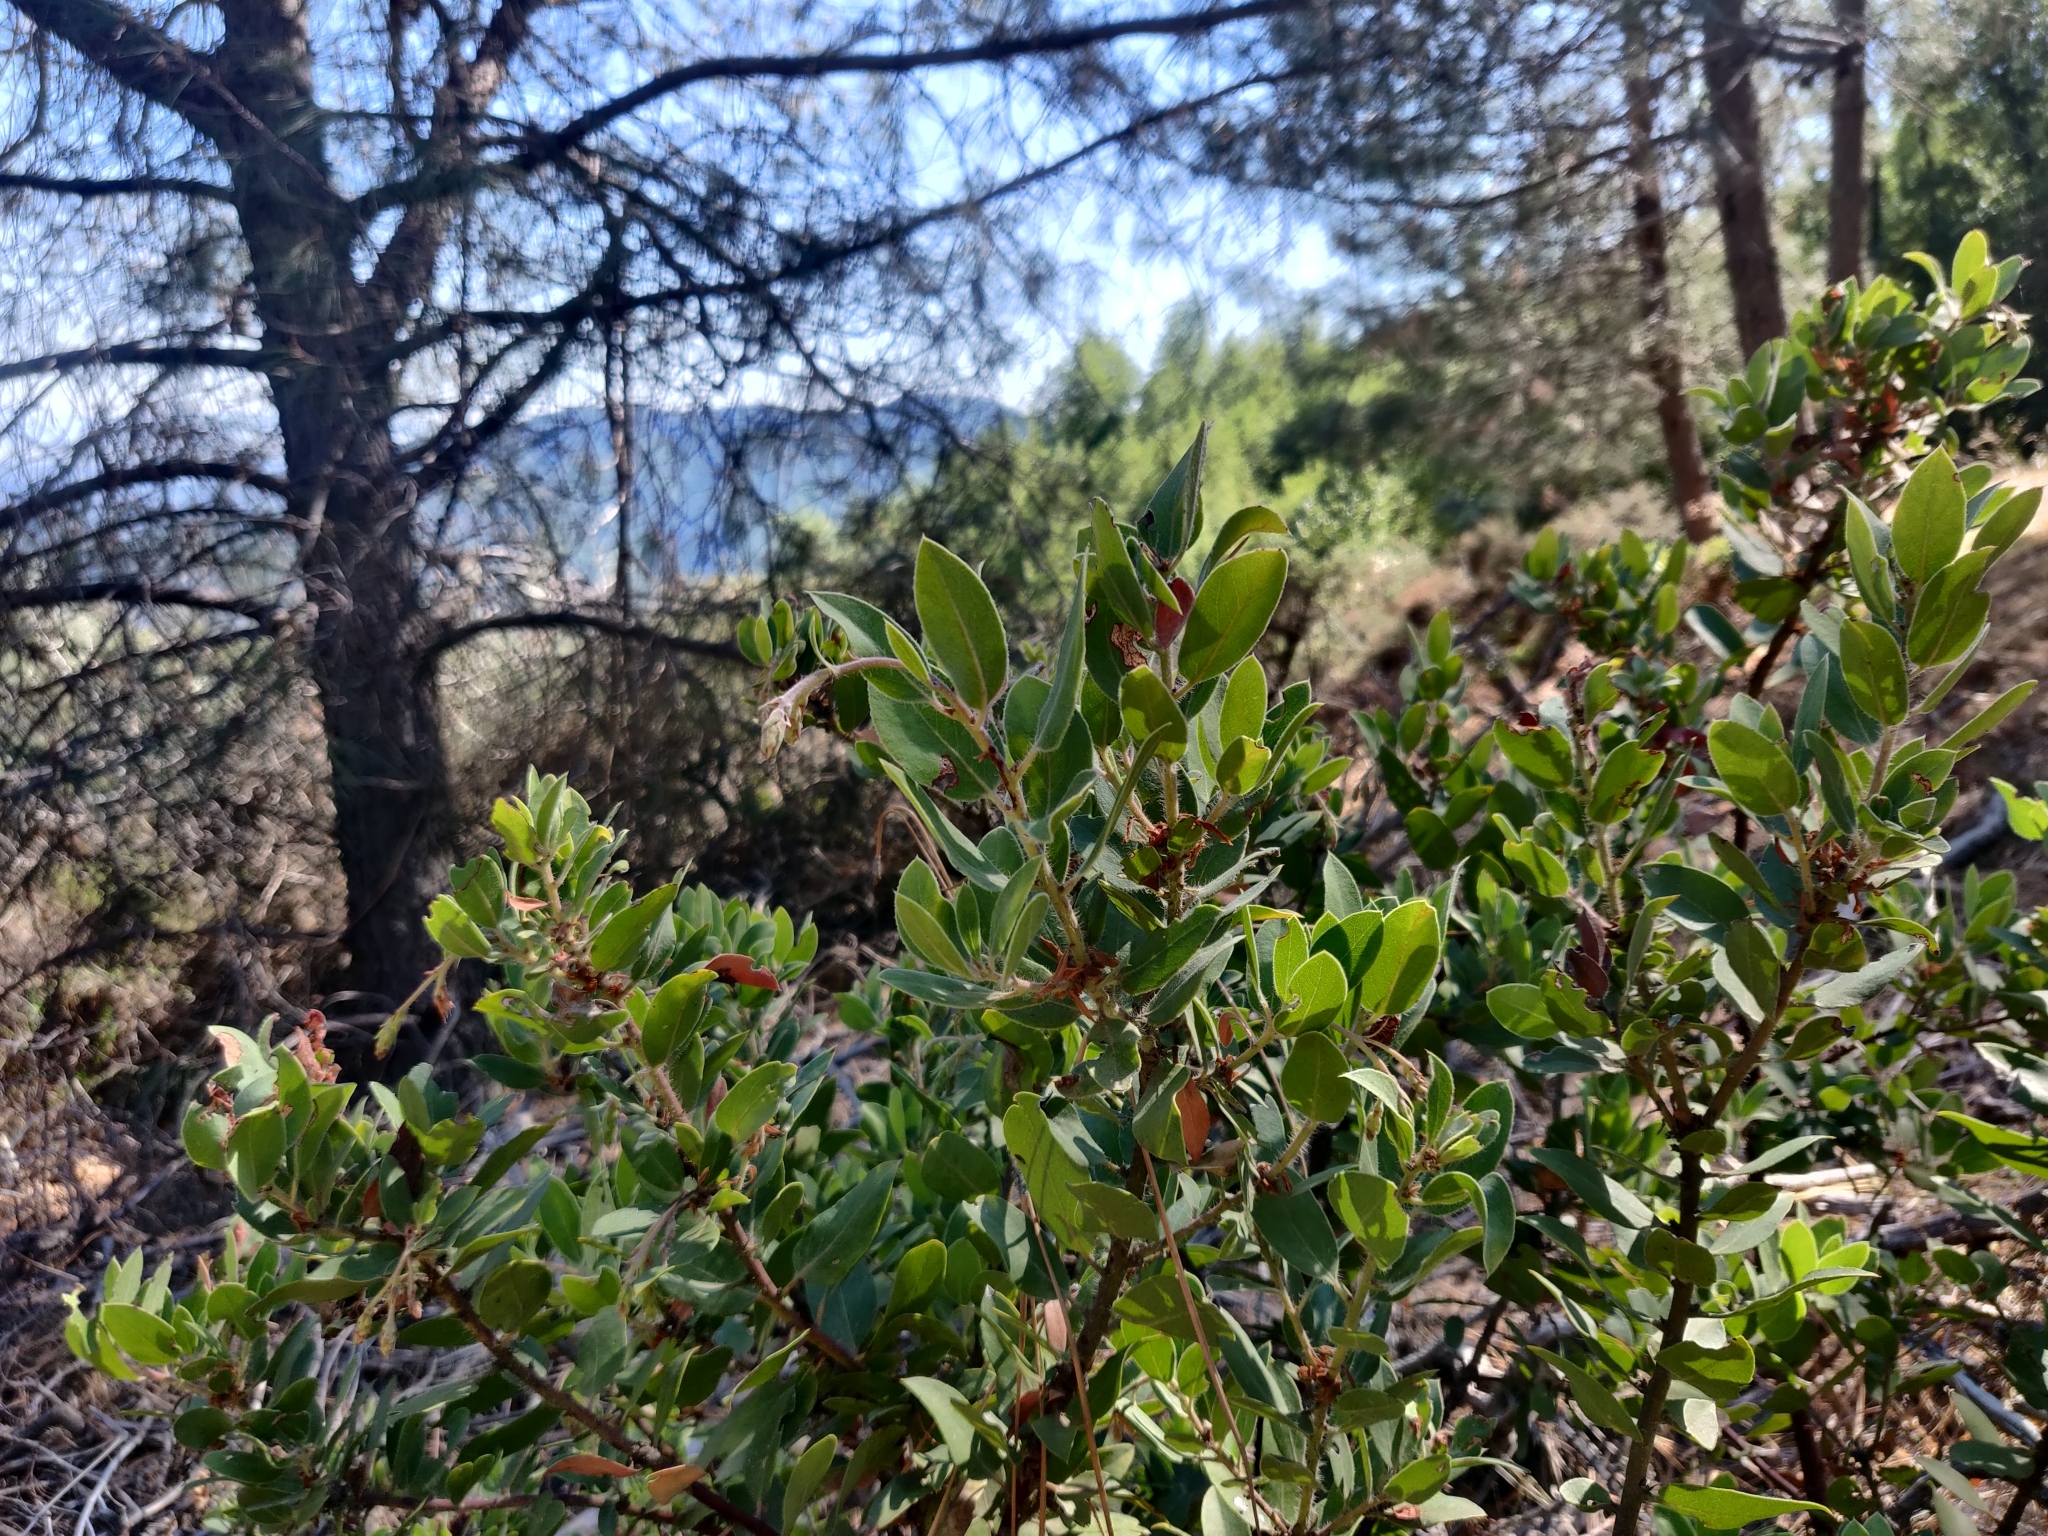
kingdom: Plantae
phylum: Tracheophyta
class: Magnoliopsida
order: Ericales
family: Ericaceae
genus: Arctostaphylos
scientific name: Arctostaphylos crustacea
